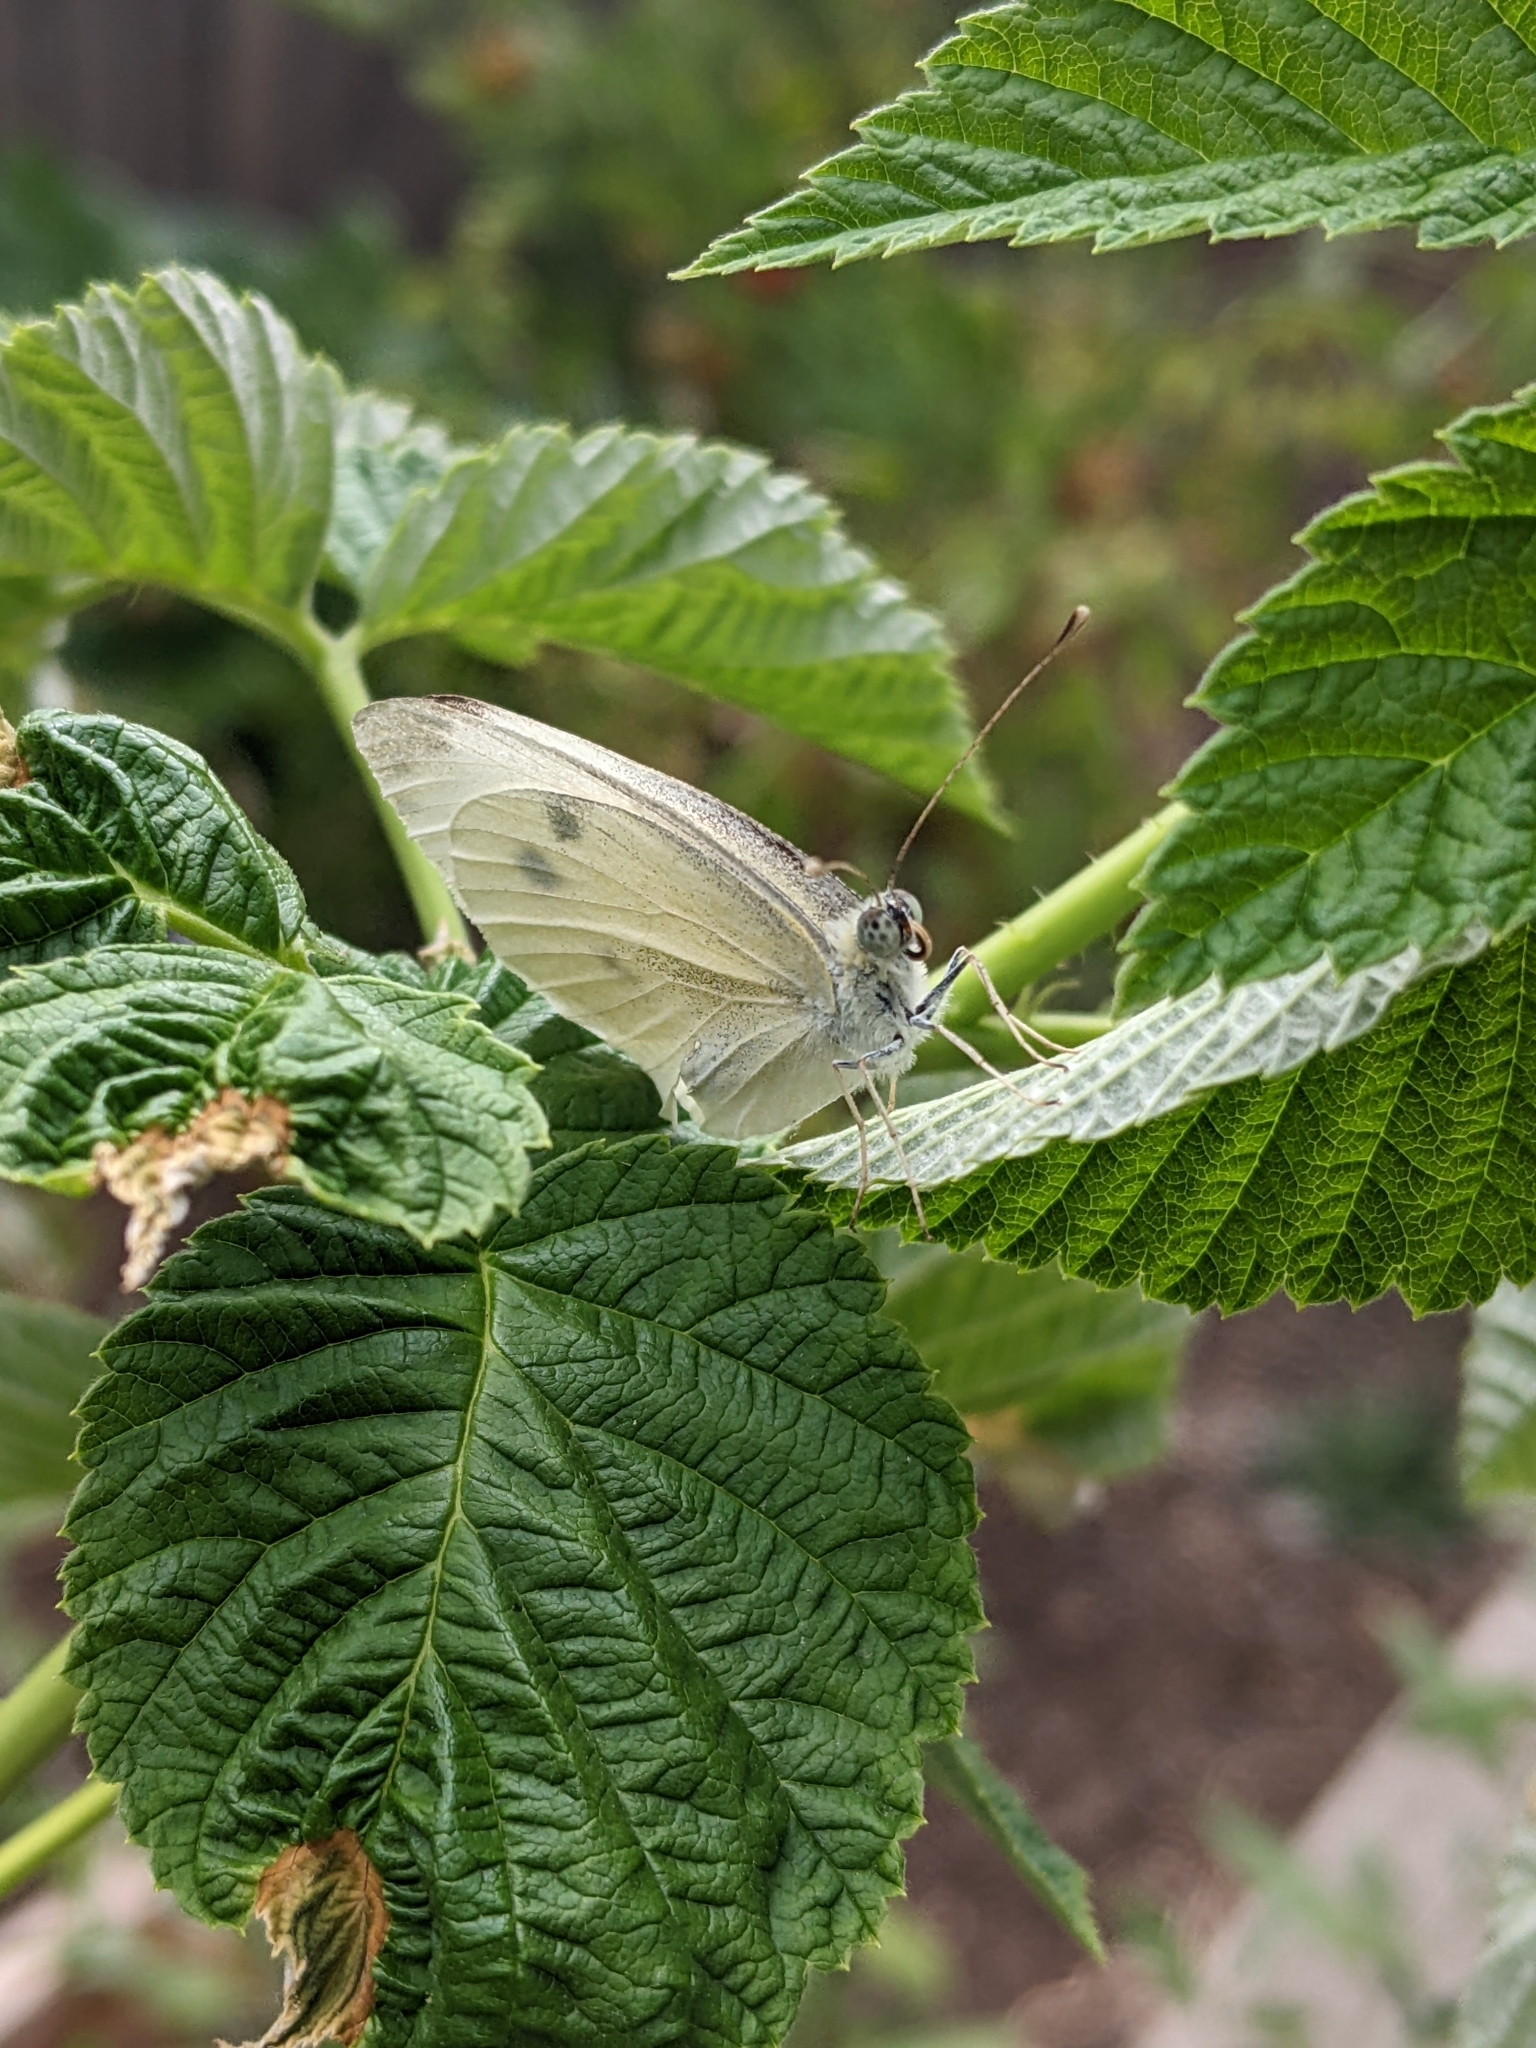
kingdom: Animalia
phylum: Arthropoda
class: Insecta
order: Lepidoptera
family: Pieridae
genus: Pieris
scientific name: Pieris rapae
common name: Small white
